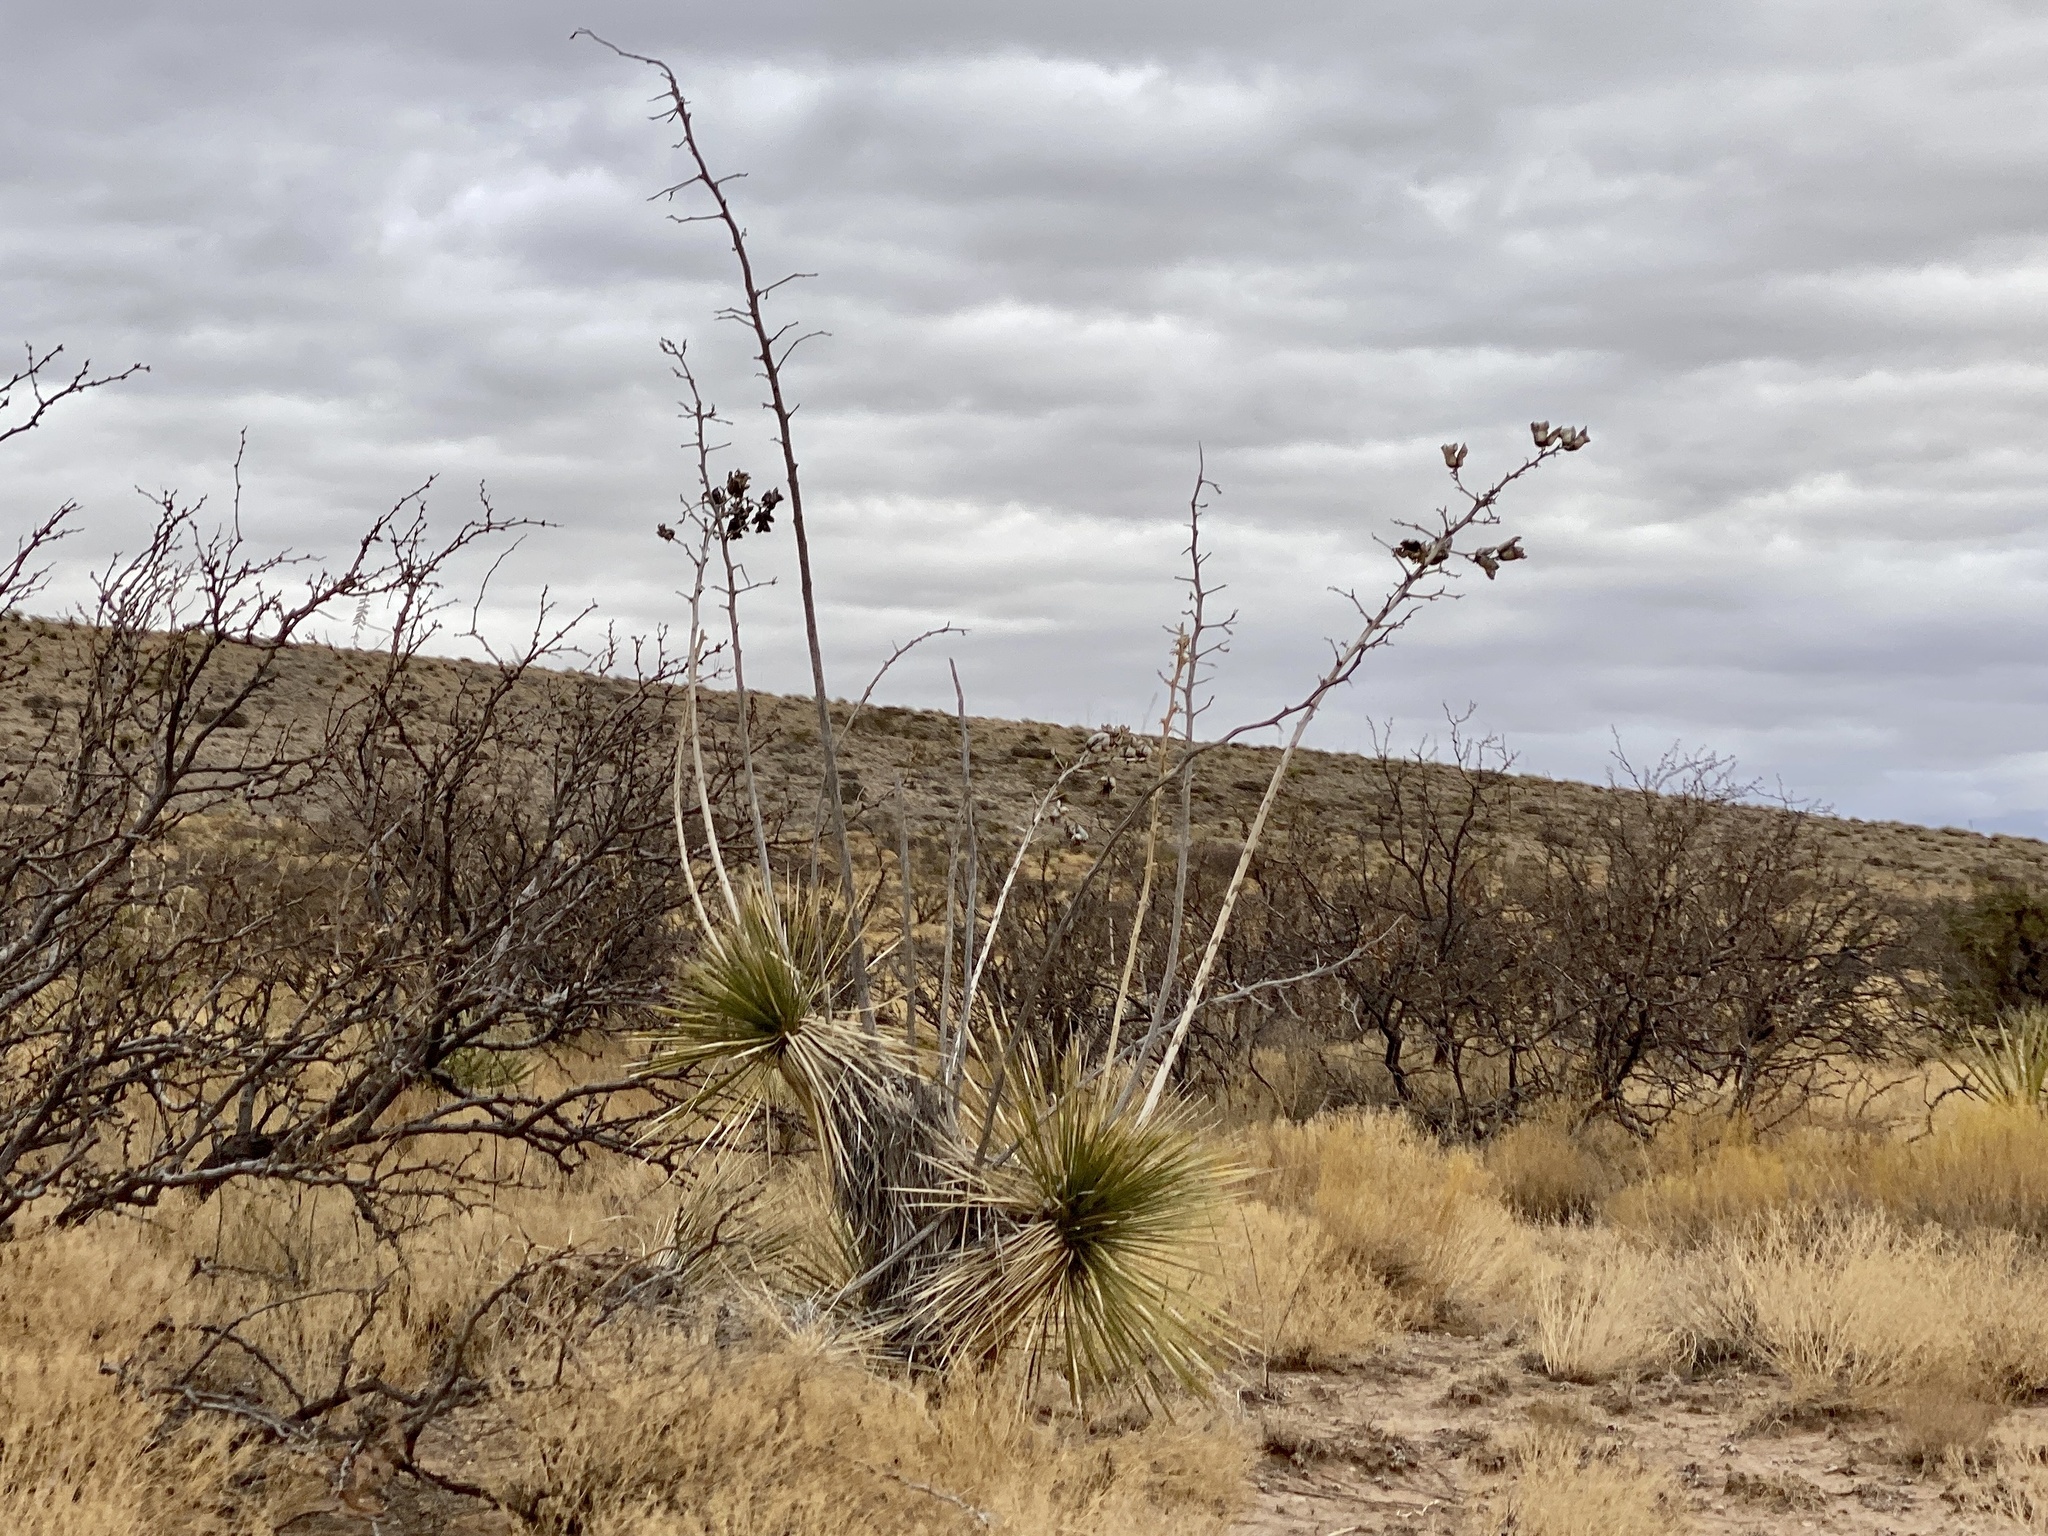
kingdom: Plantae
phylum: Tracheophyta
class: Liliopsida
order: Asparagales
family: Asparagaceae
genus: Yucca
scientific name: Yucca elata
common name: Palmella
